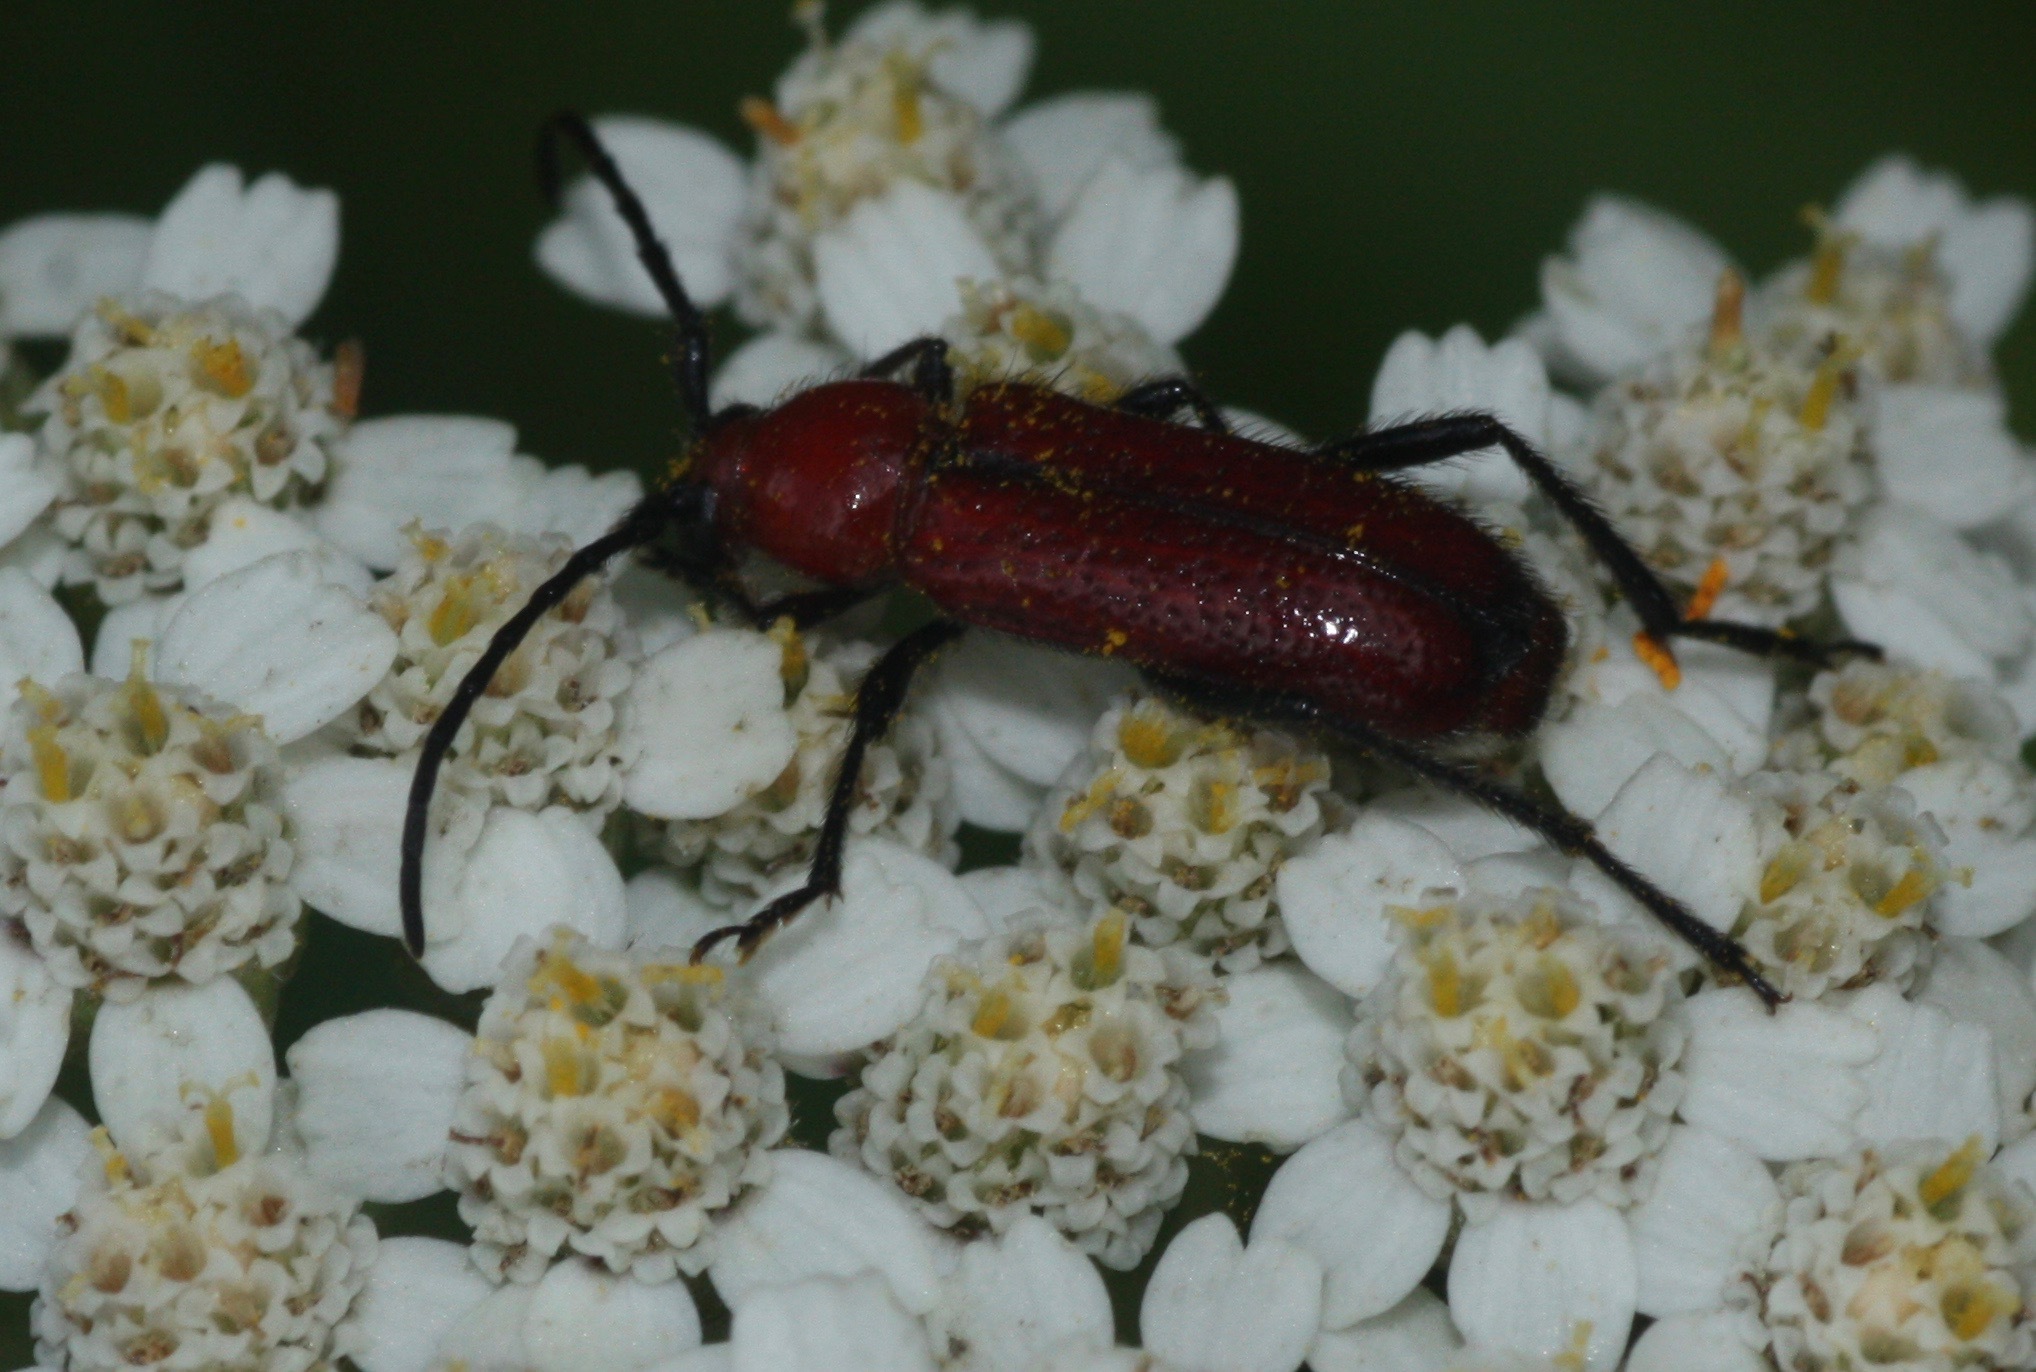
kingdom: Animalia
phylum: Arthropoda
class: Insecta
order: Coleoptera
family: Cerambycidae
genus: Batyle
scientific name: Batyle suturalis
